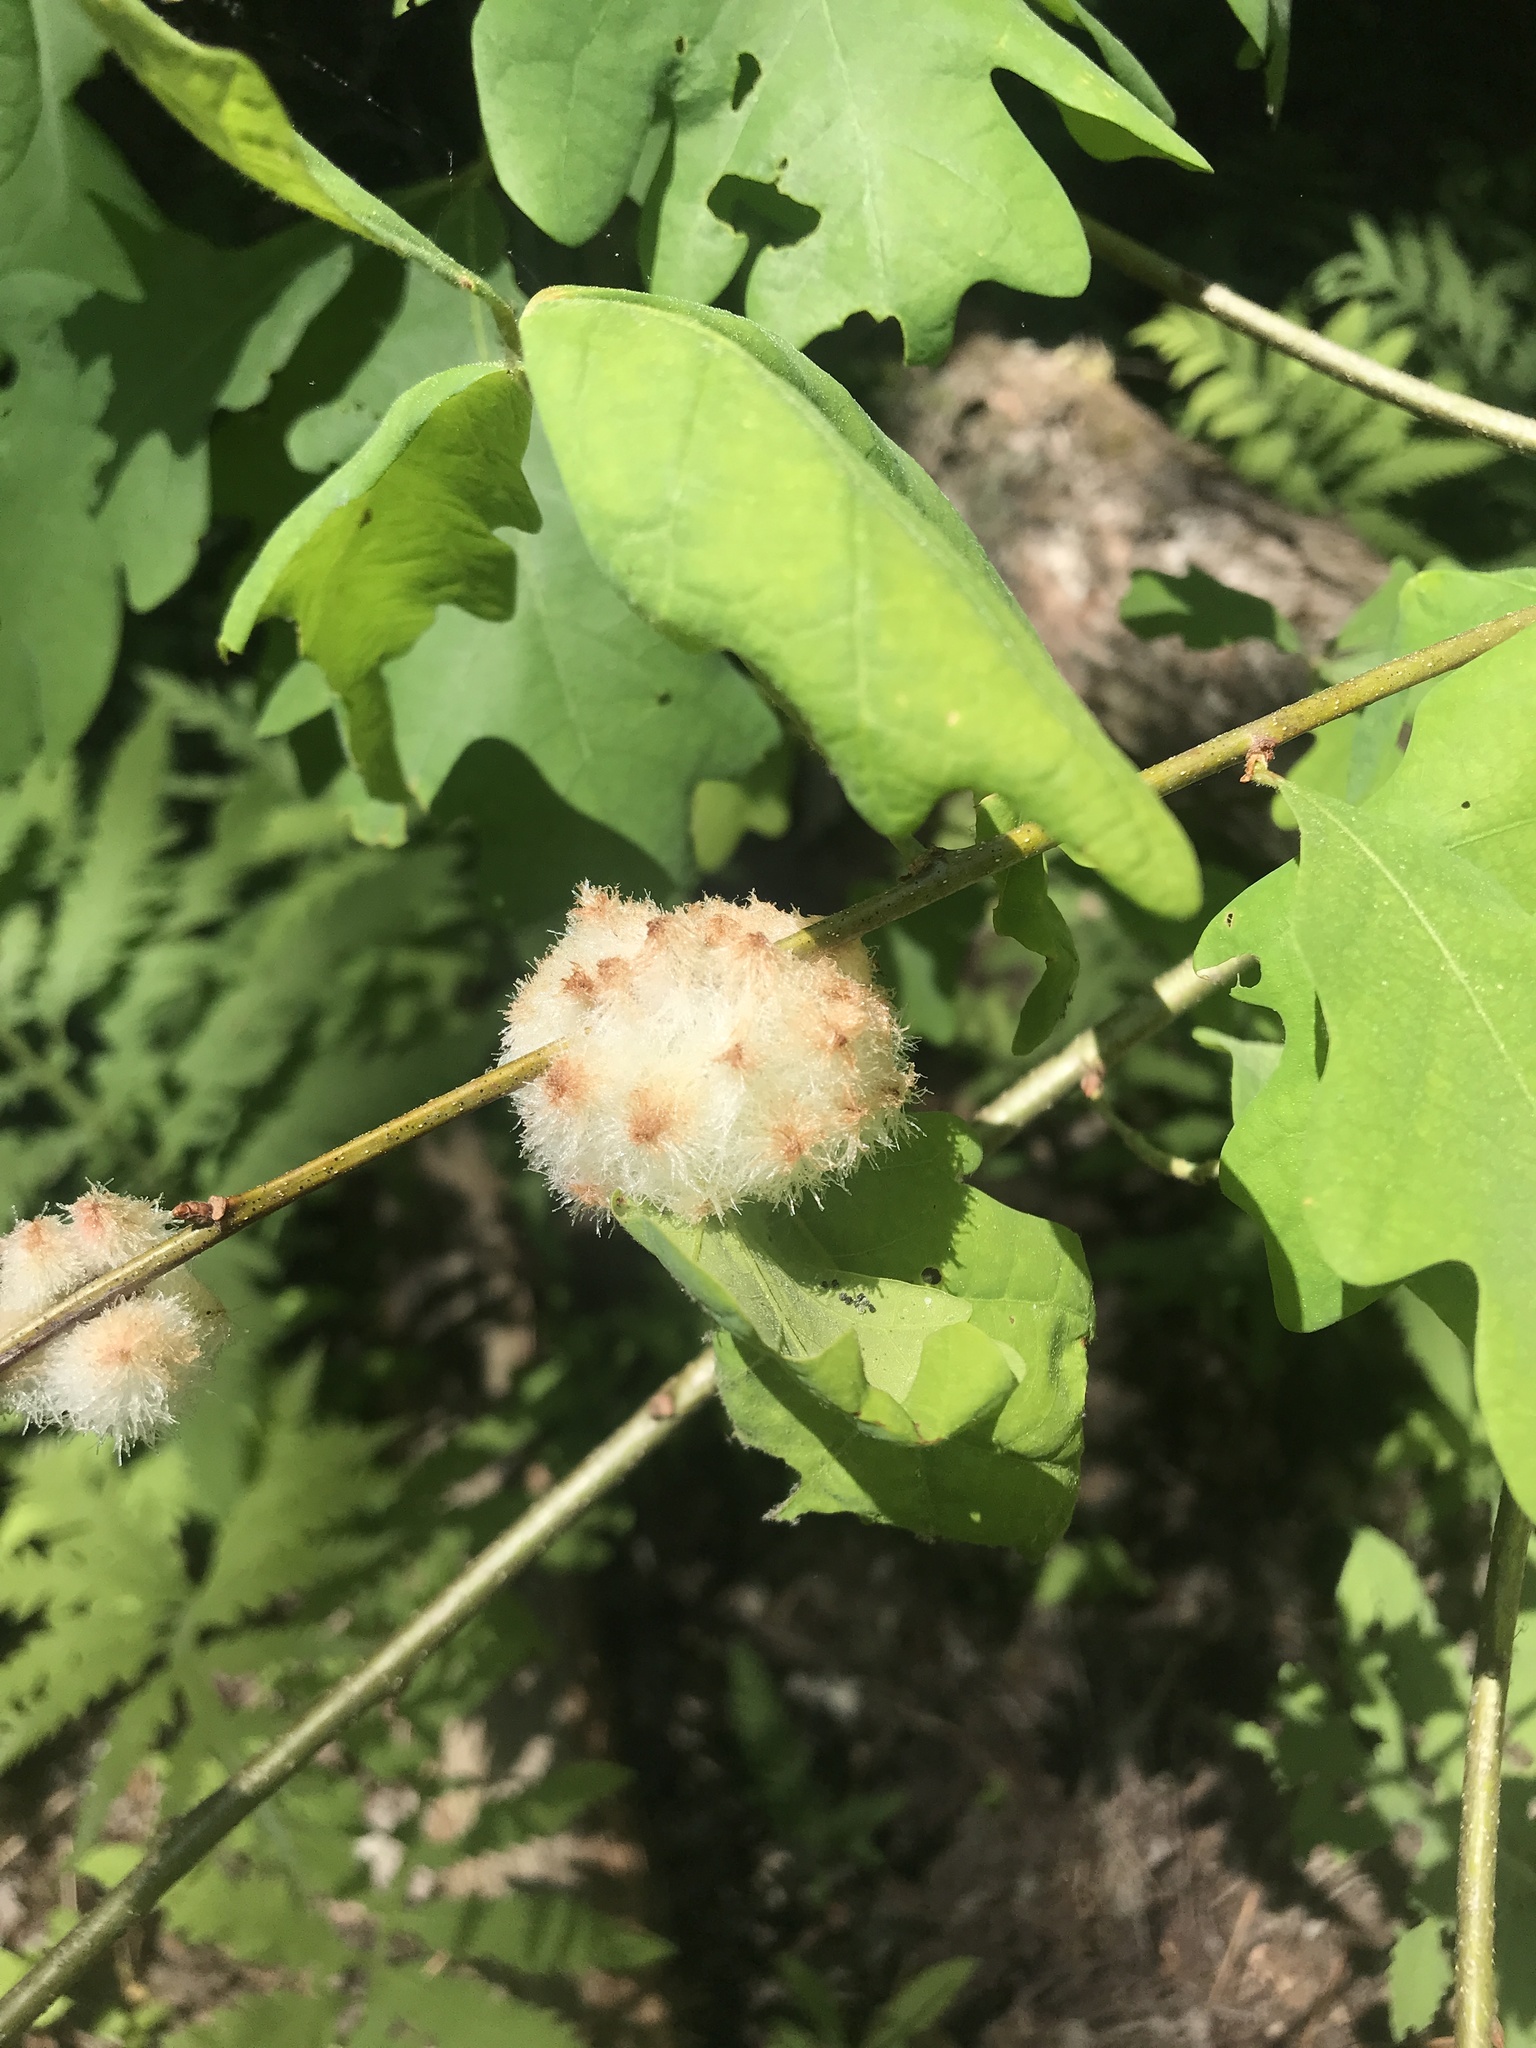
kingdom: Animalia
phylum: Arthropoda
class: Insecta
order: Hymenoptera
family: Cynipidae
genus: Callirhytis
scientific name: Callirhytis
